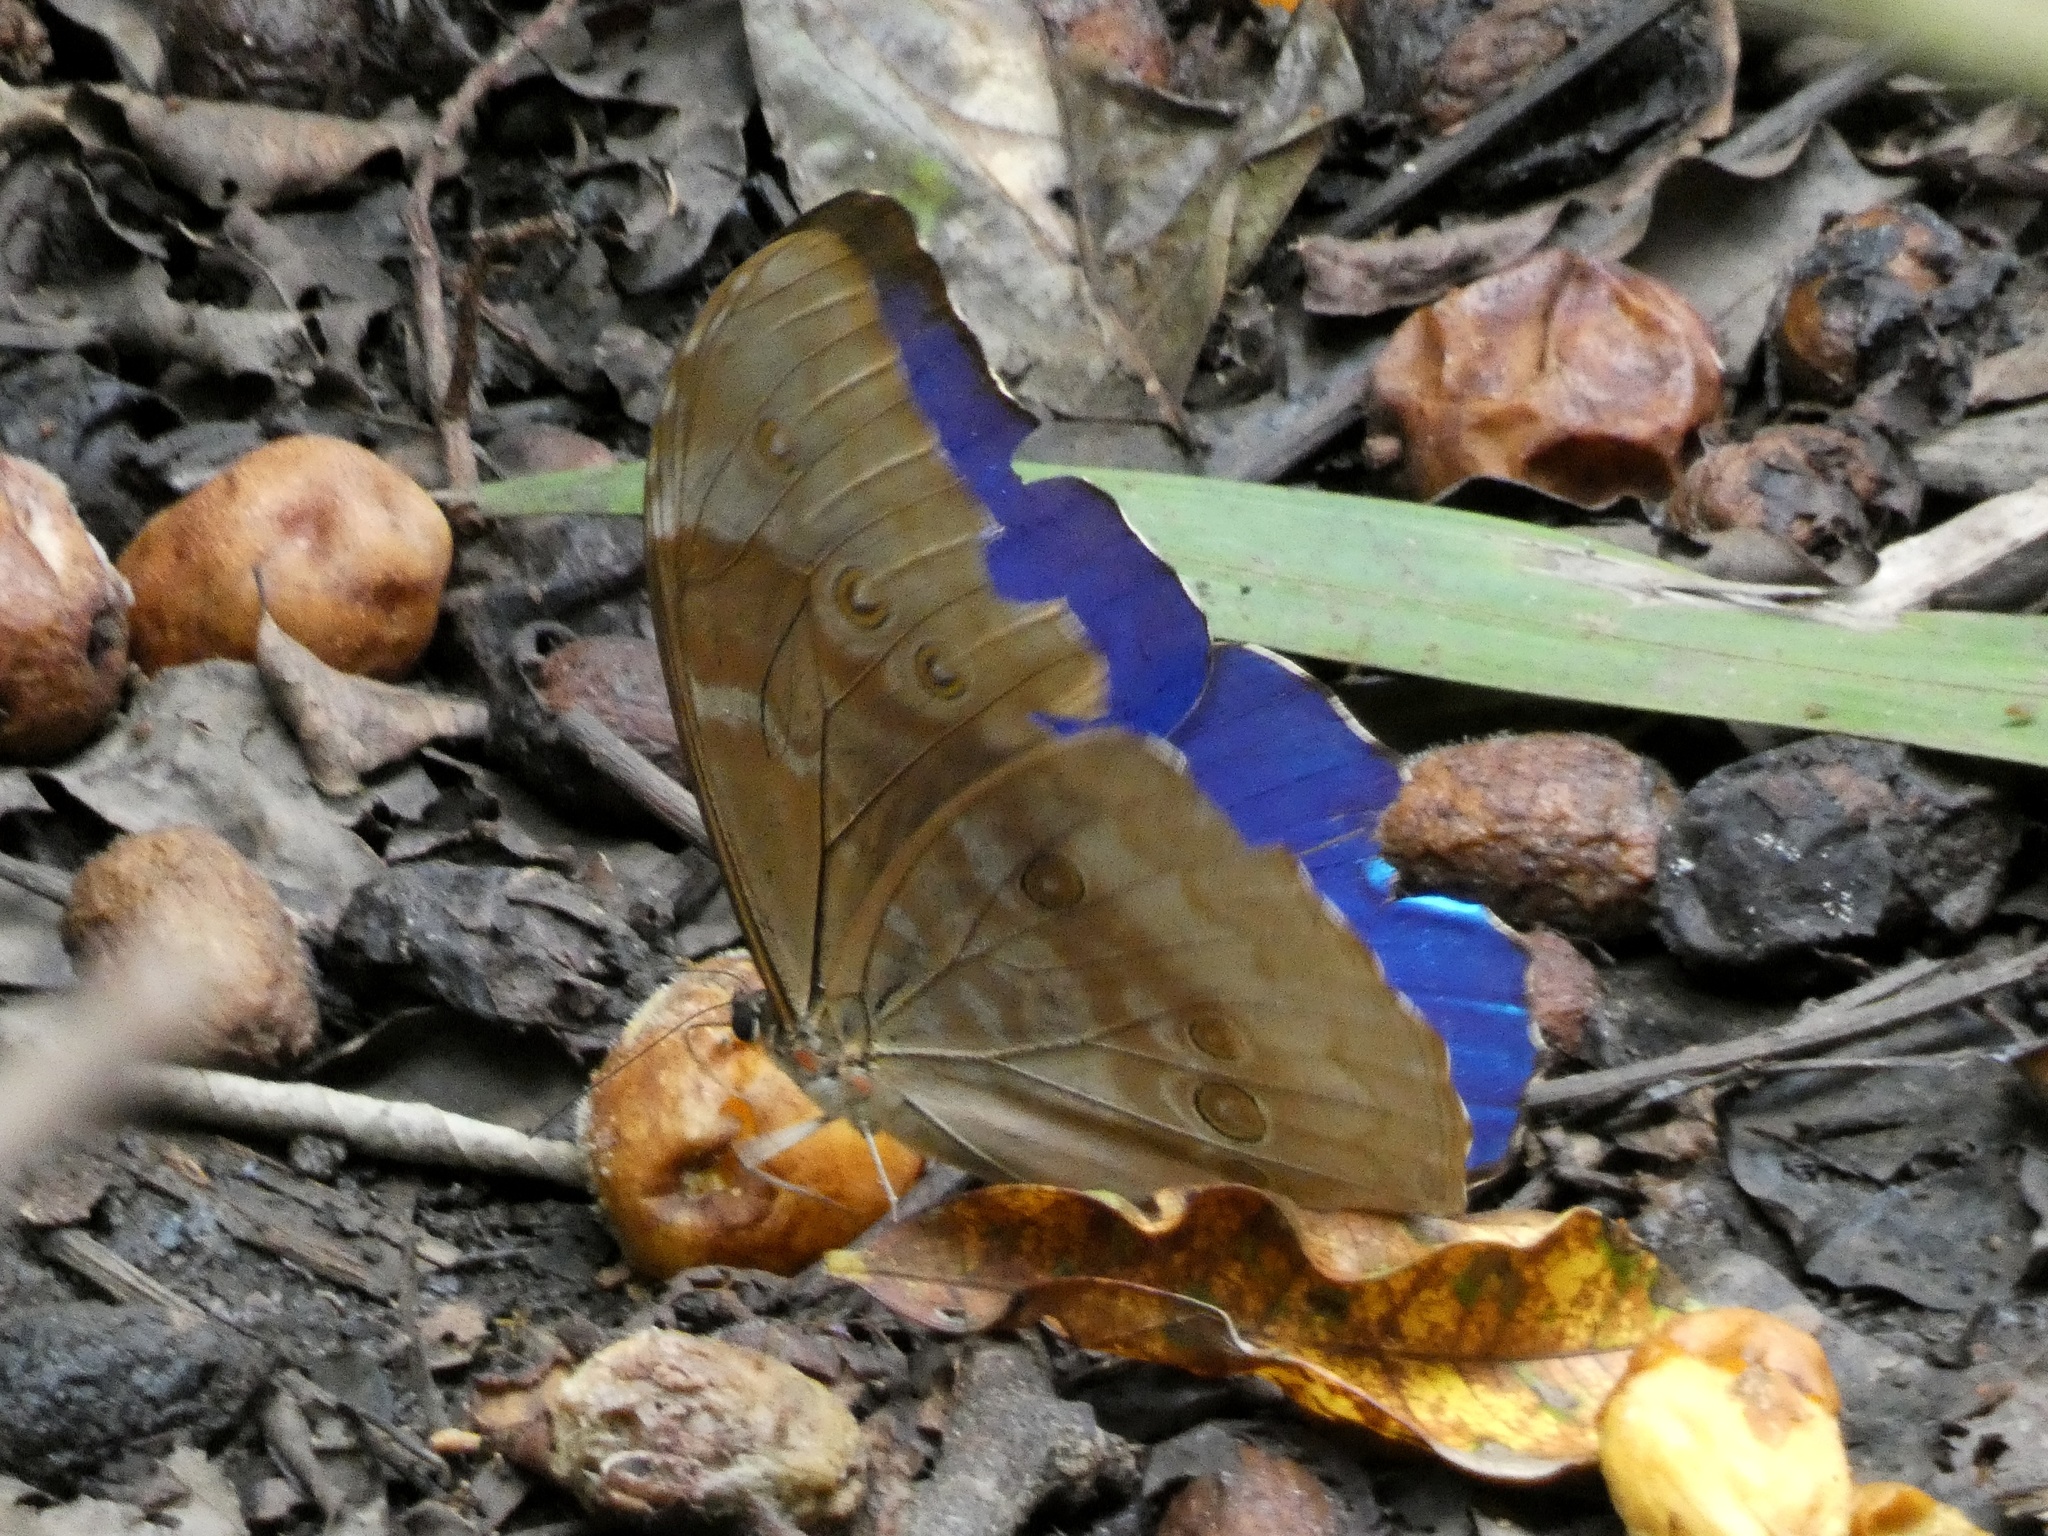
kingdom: Animalia
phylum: Arthropoda
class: Insecta
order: Lepidoptera
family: Nymphalidae
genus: Morpho
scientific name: Morpho amathonte
